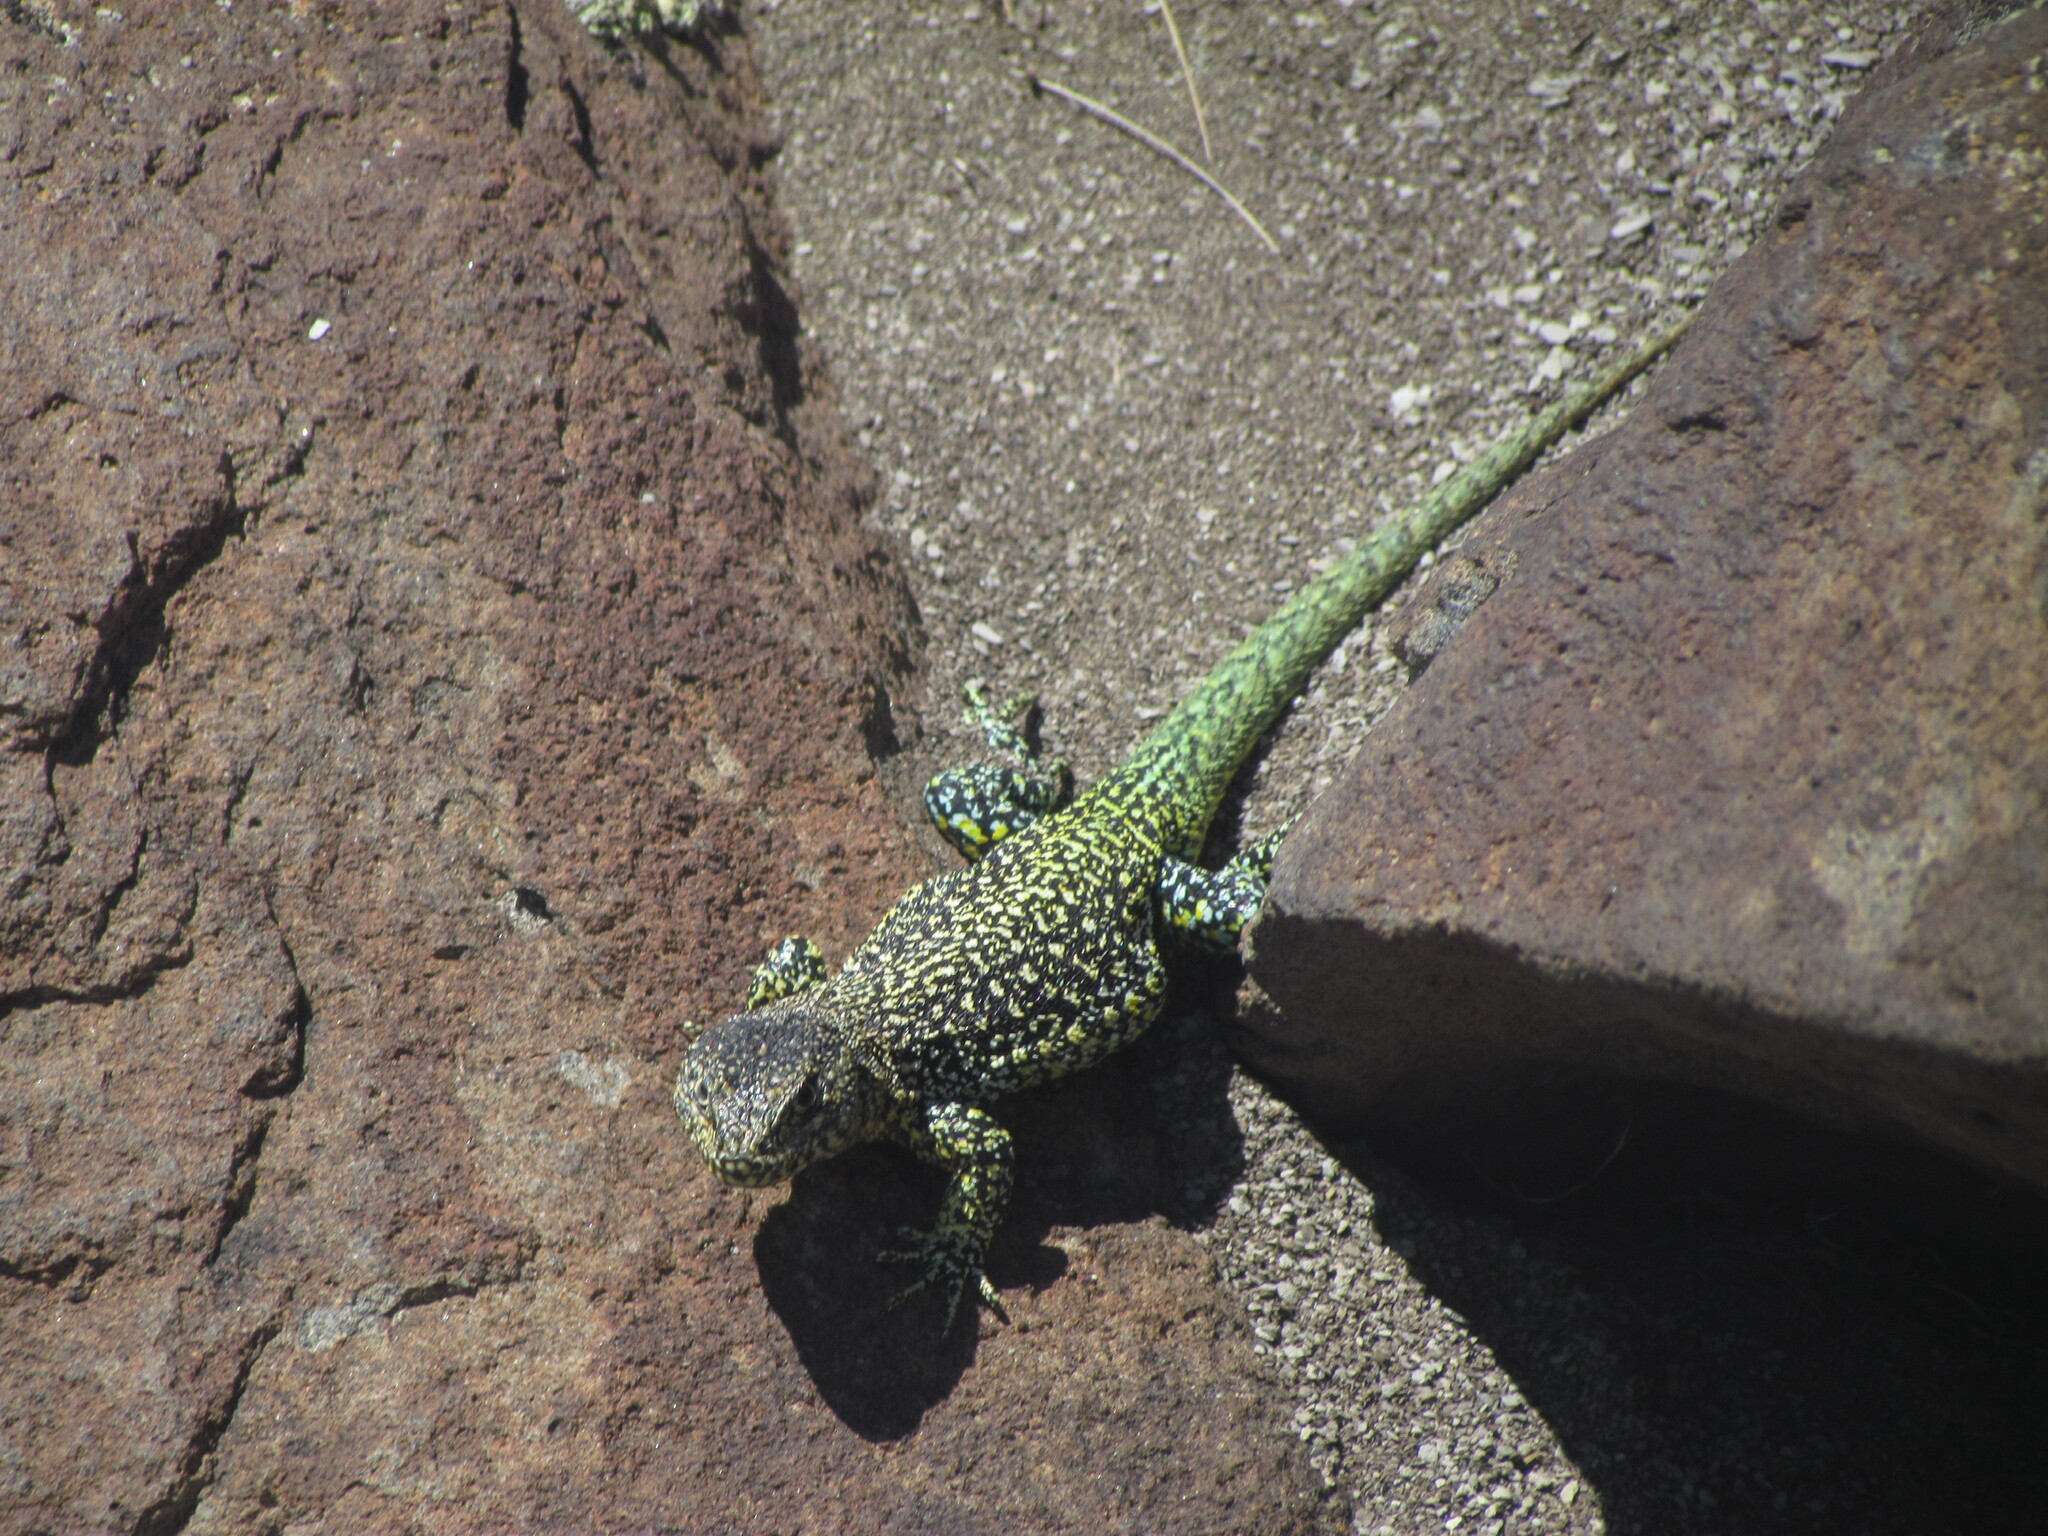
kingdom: Animalia
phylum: Chordata
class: Squamata
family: Liolaemidae
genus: Liolaemus
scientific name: Liolaemus archeforus
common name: Main tree iguana
